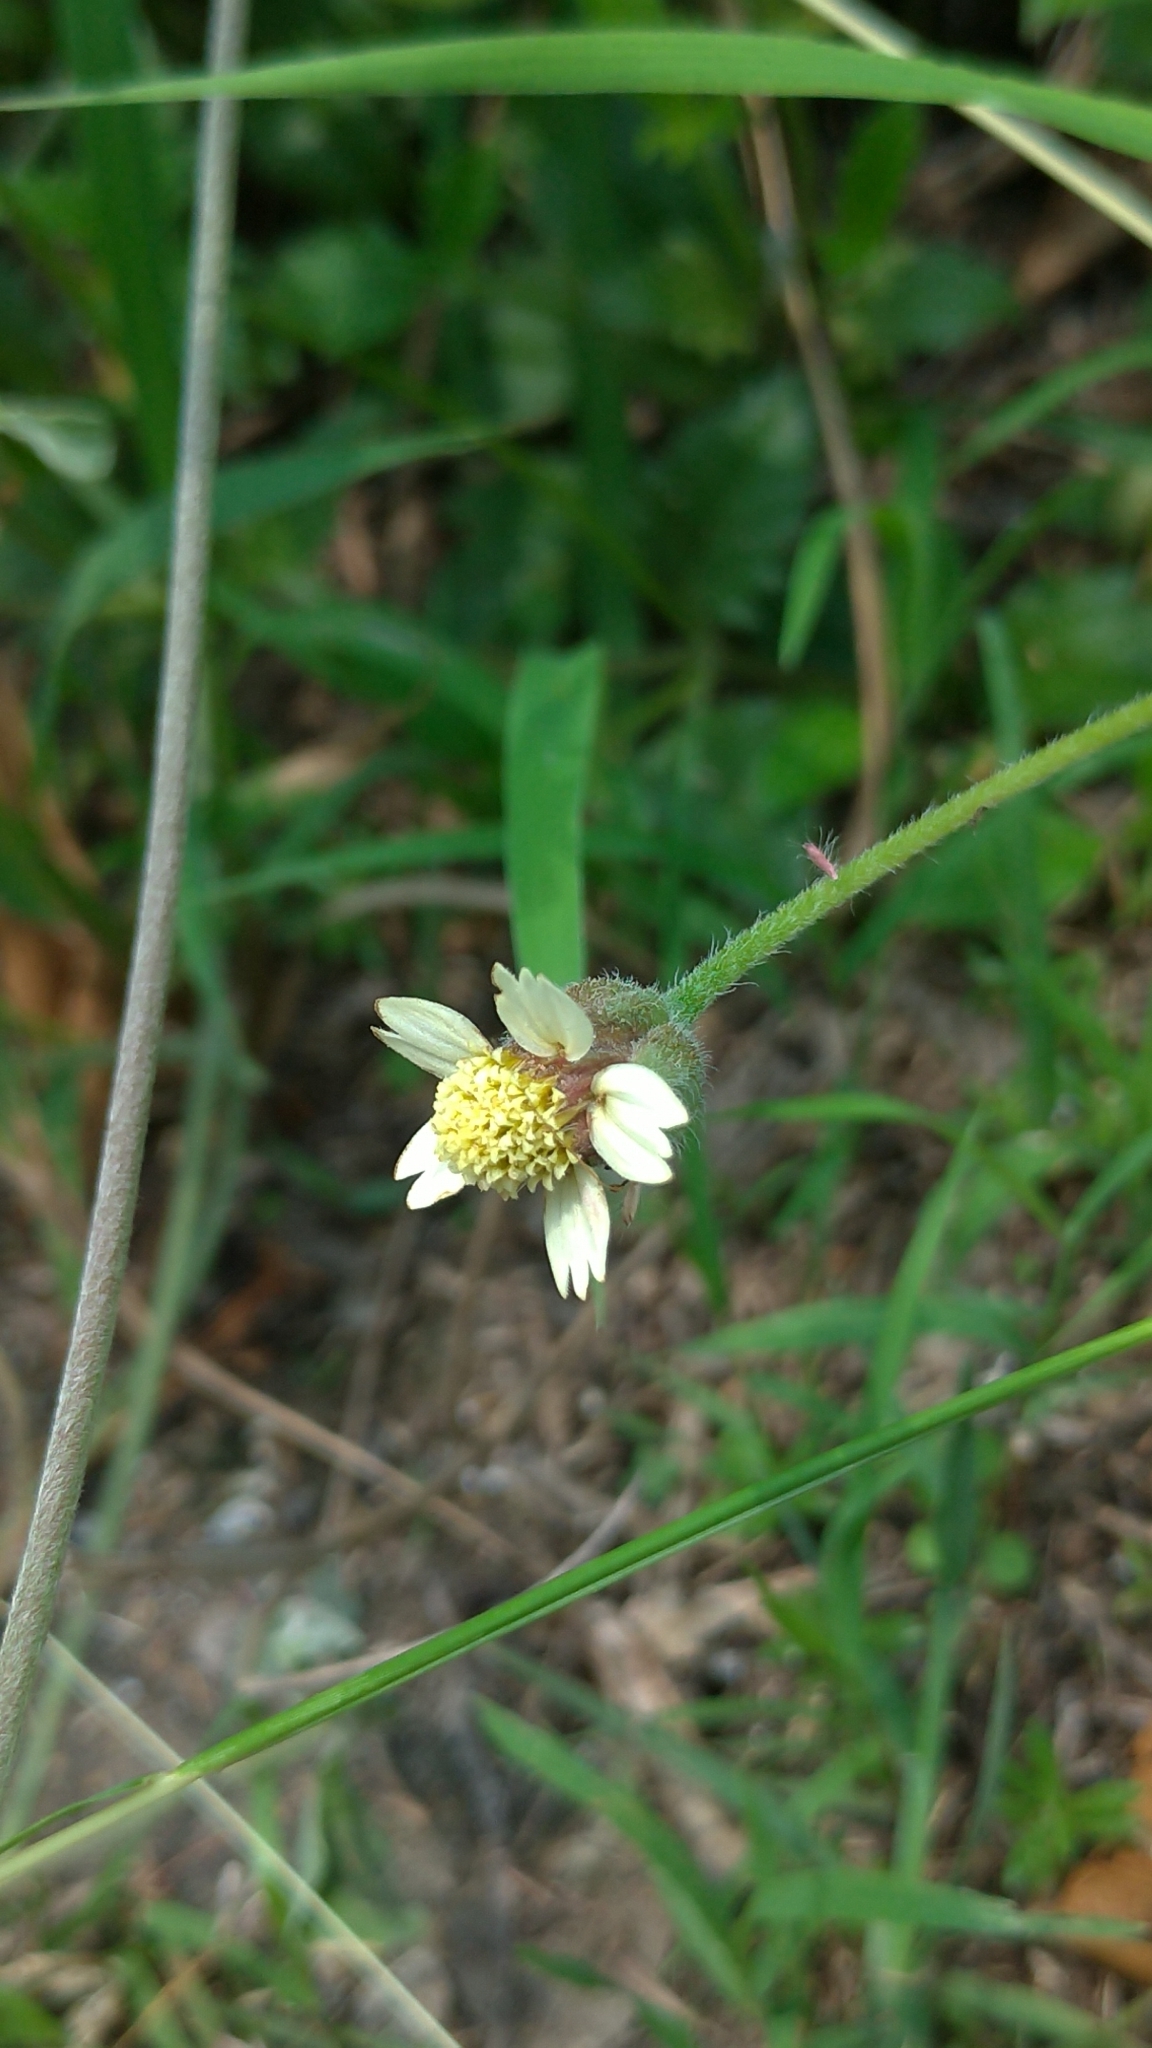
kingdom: Plantae
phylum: Tracheophyta
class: Magnoliopsida
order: Asterales
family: Asteraceae
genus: Tridax
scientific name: Tridax procumbens
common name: Coatbuttons
